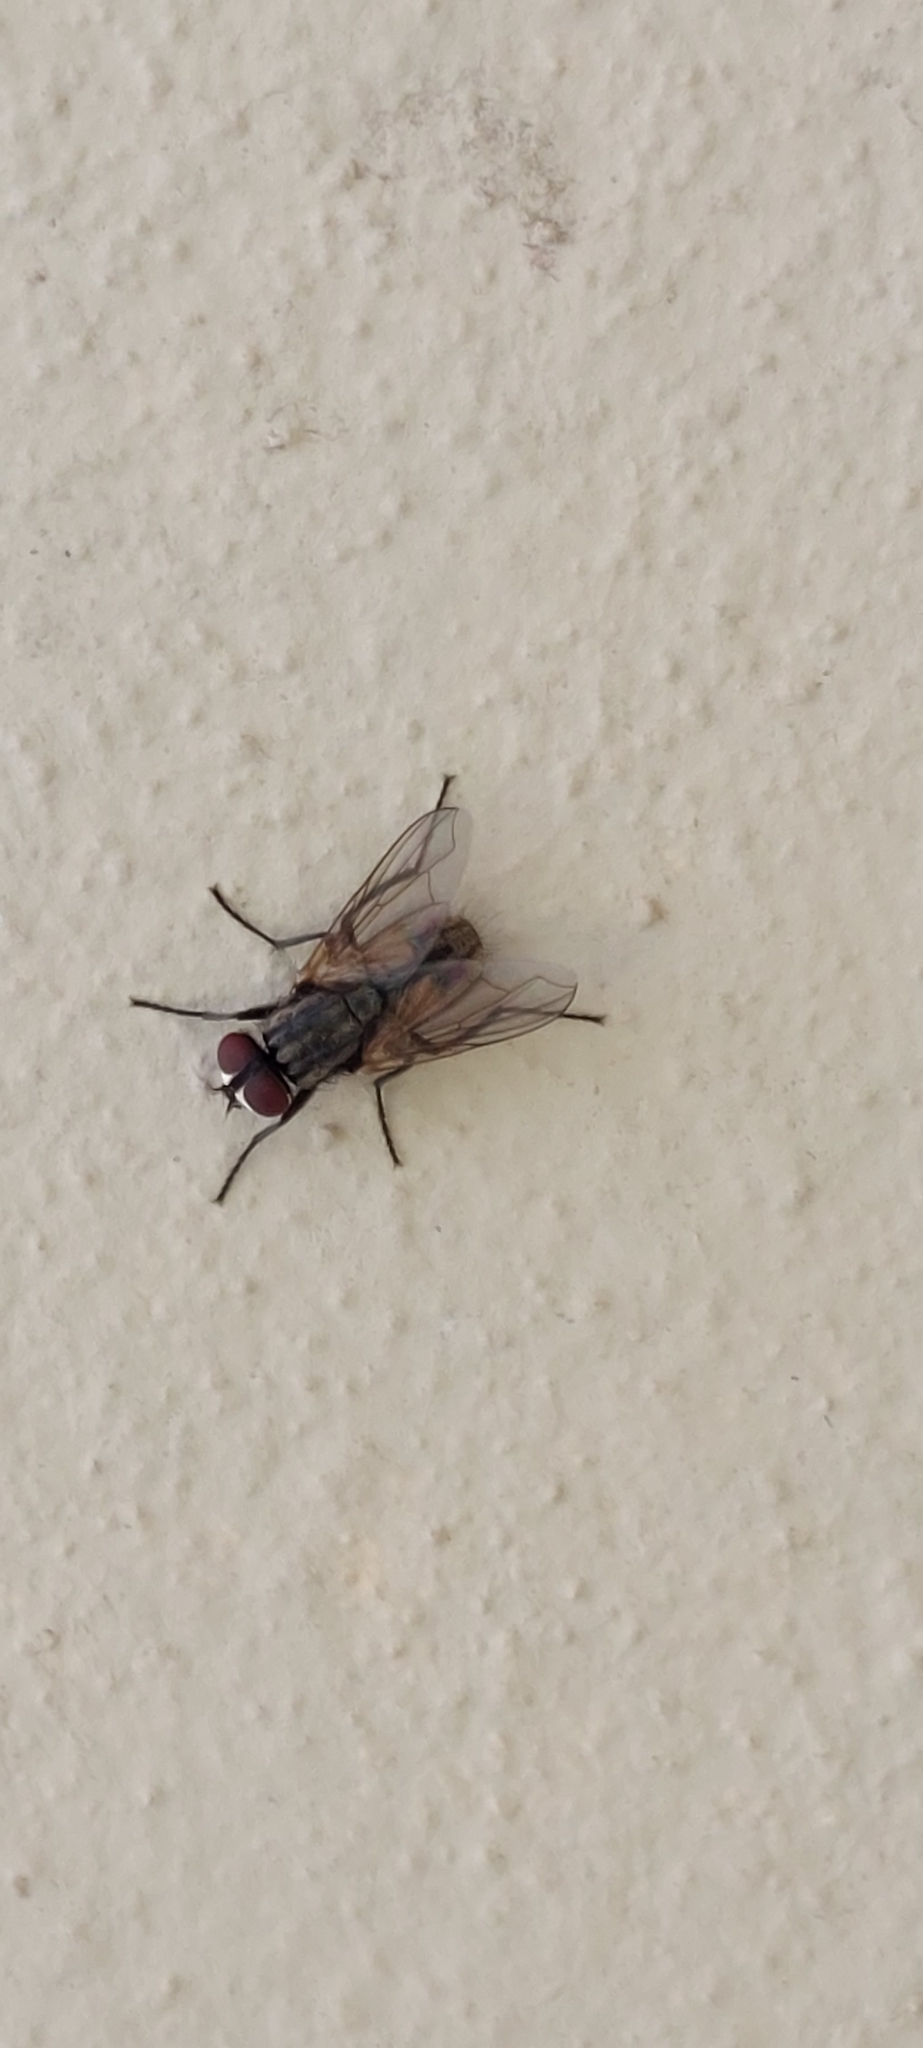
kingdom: Animalia
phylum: Arthropoda
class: Insecta
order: Diptera
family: Muscidae
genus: Musca
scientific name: Musca domestica
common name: House fly
